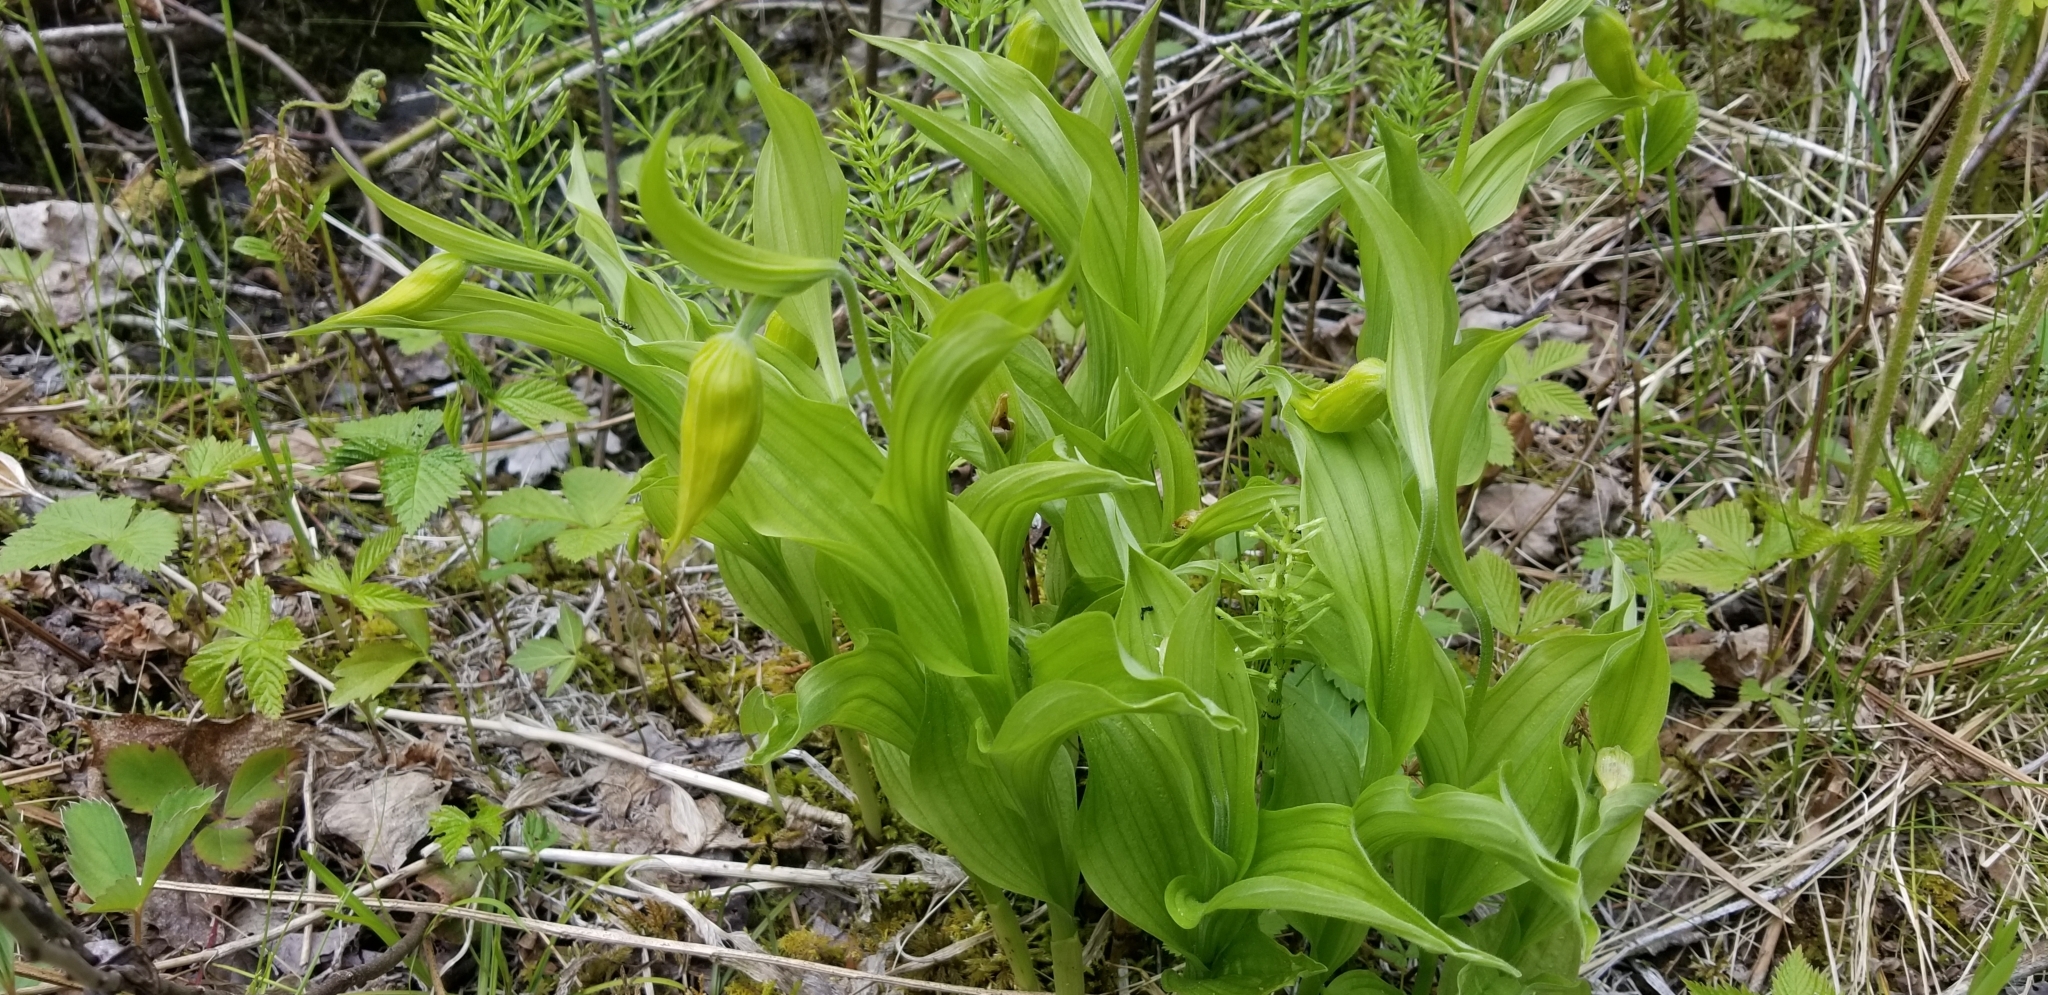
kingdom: Plantae
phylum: Tracheophyta
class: Liliopsida
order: Asparagales
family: Orchidaceae
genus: Cypripedium
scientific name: Cypripedium parviflorum
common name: American yellow lady's-slipper
